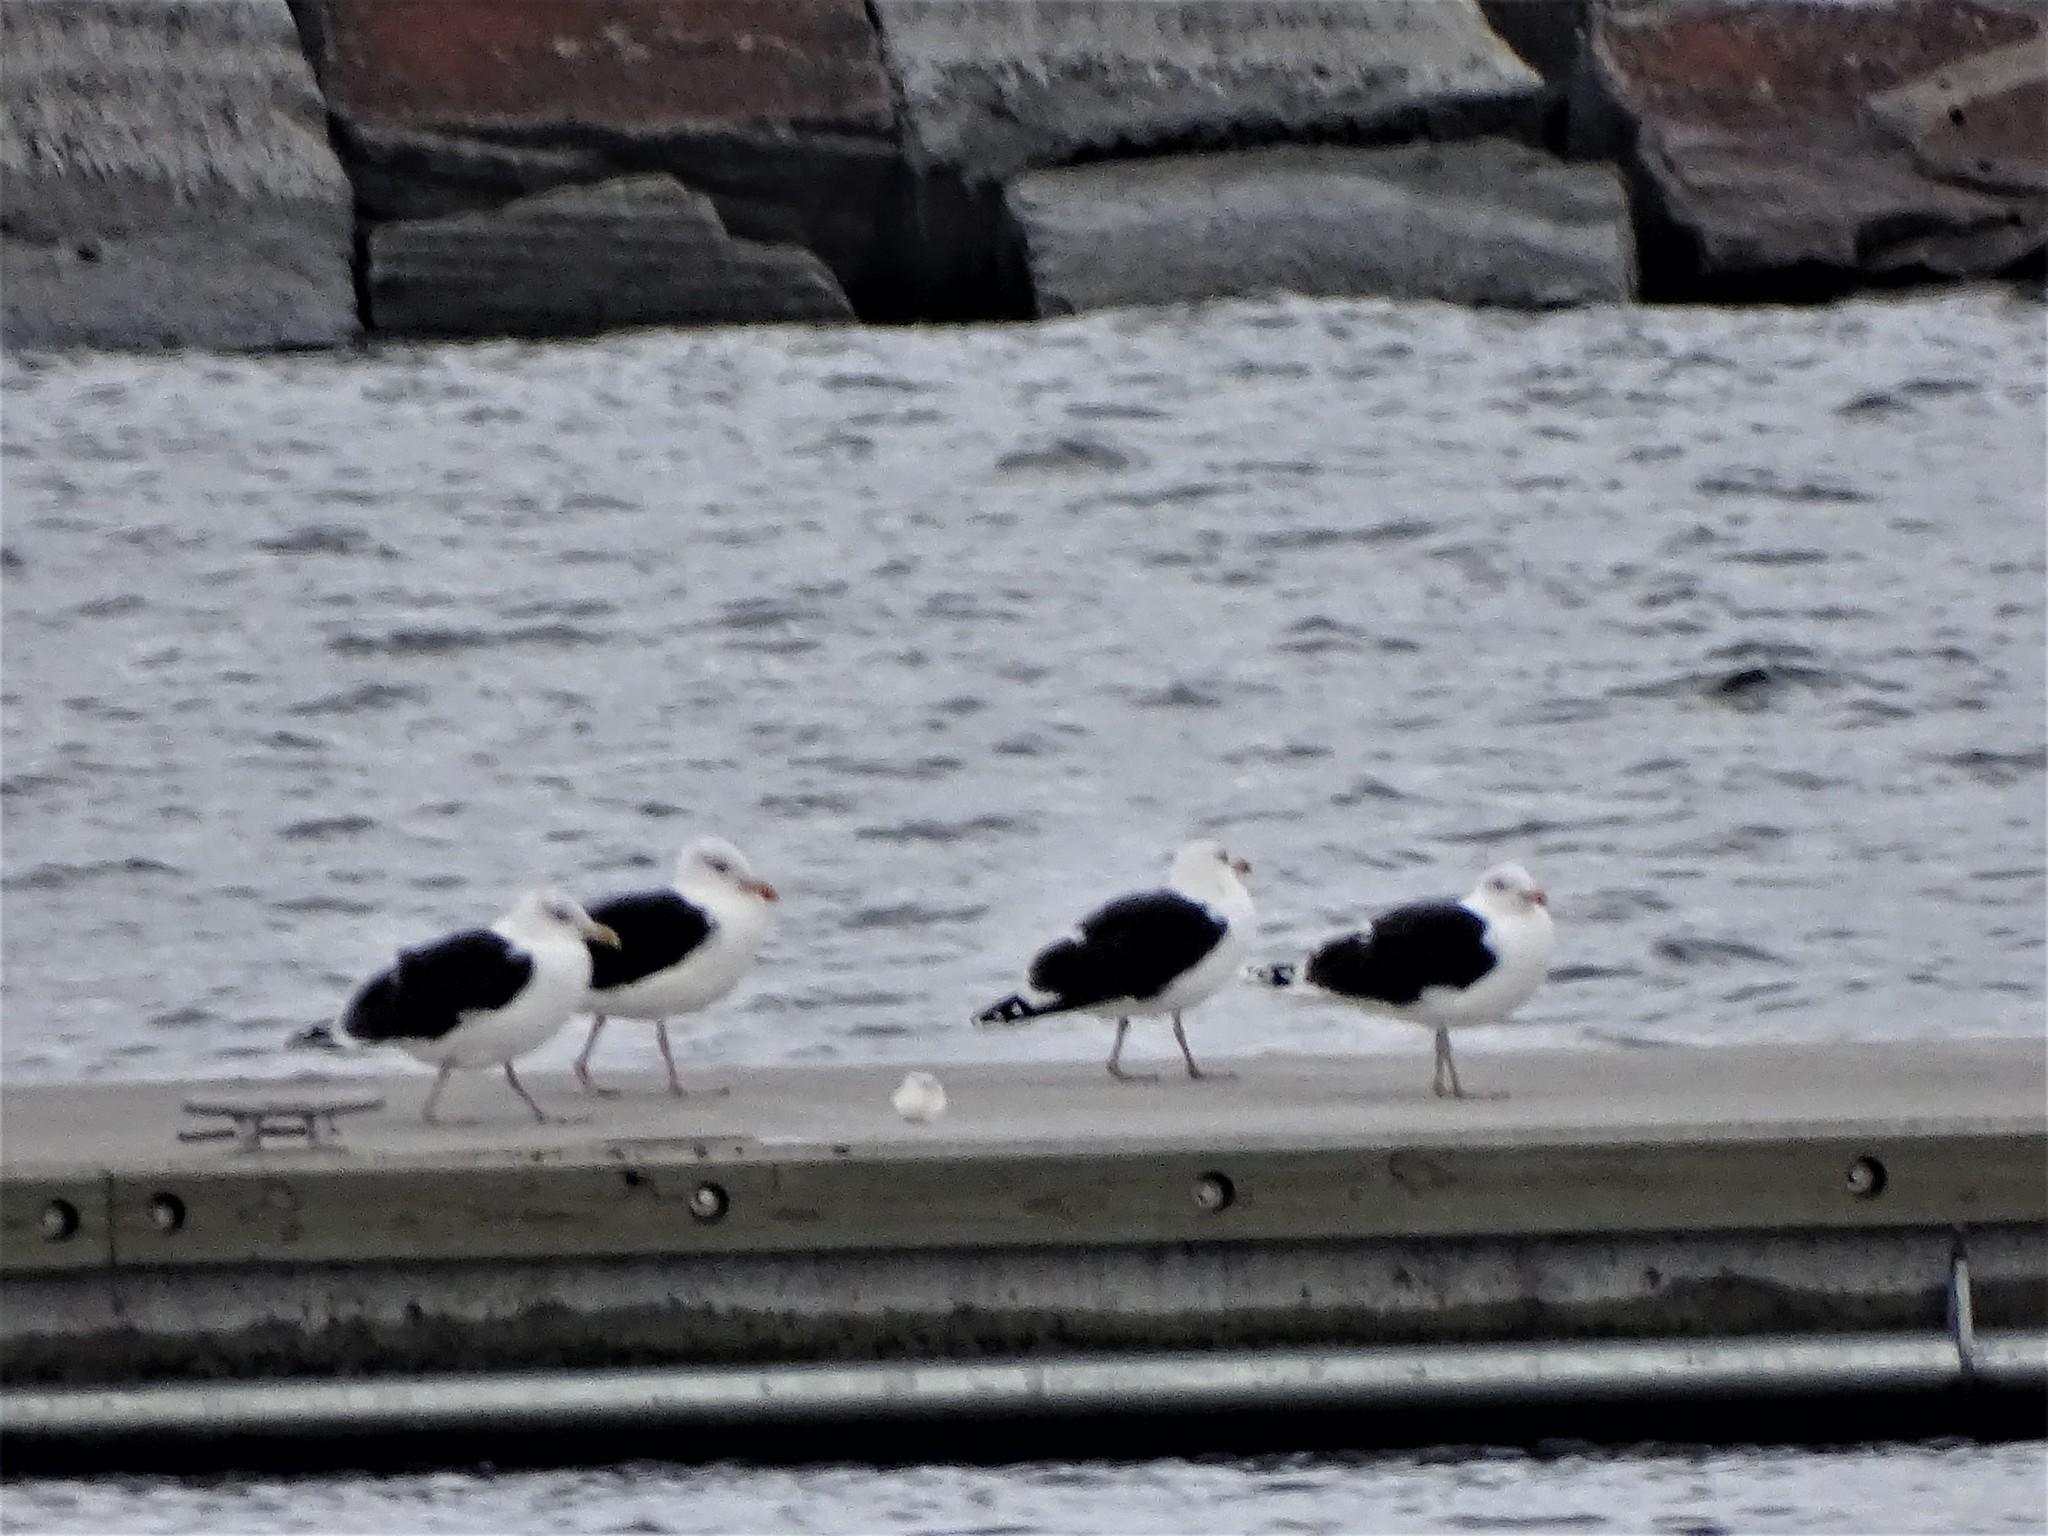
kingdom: Animalia
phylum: Chordata
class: Aves
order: Charadriiformes
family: Laridae
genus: Larus
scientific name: Larus marinus
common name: Great black-backed gull
